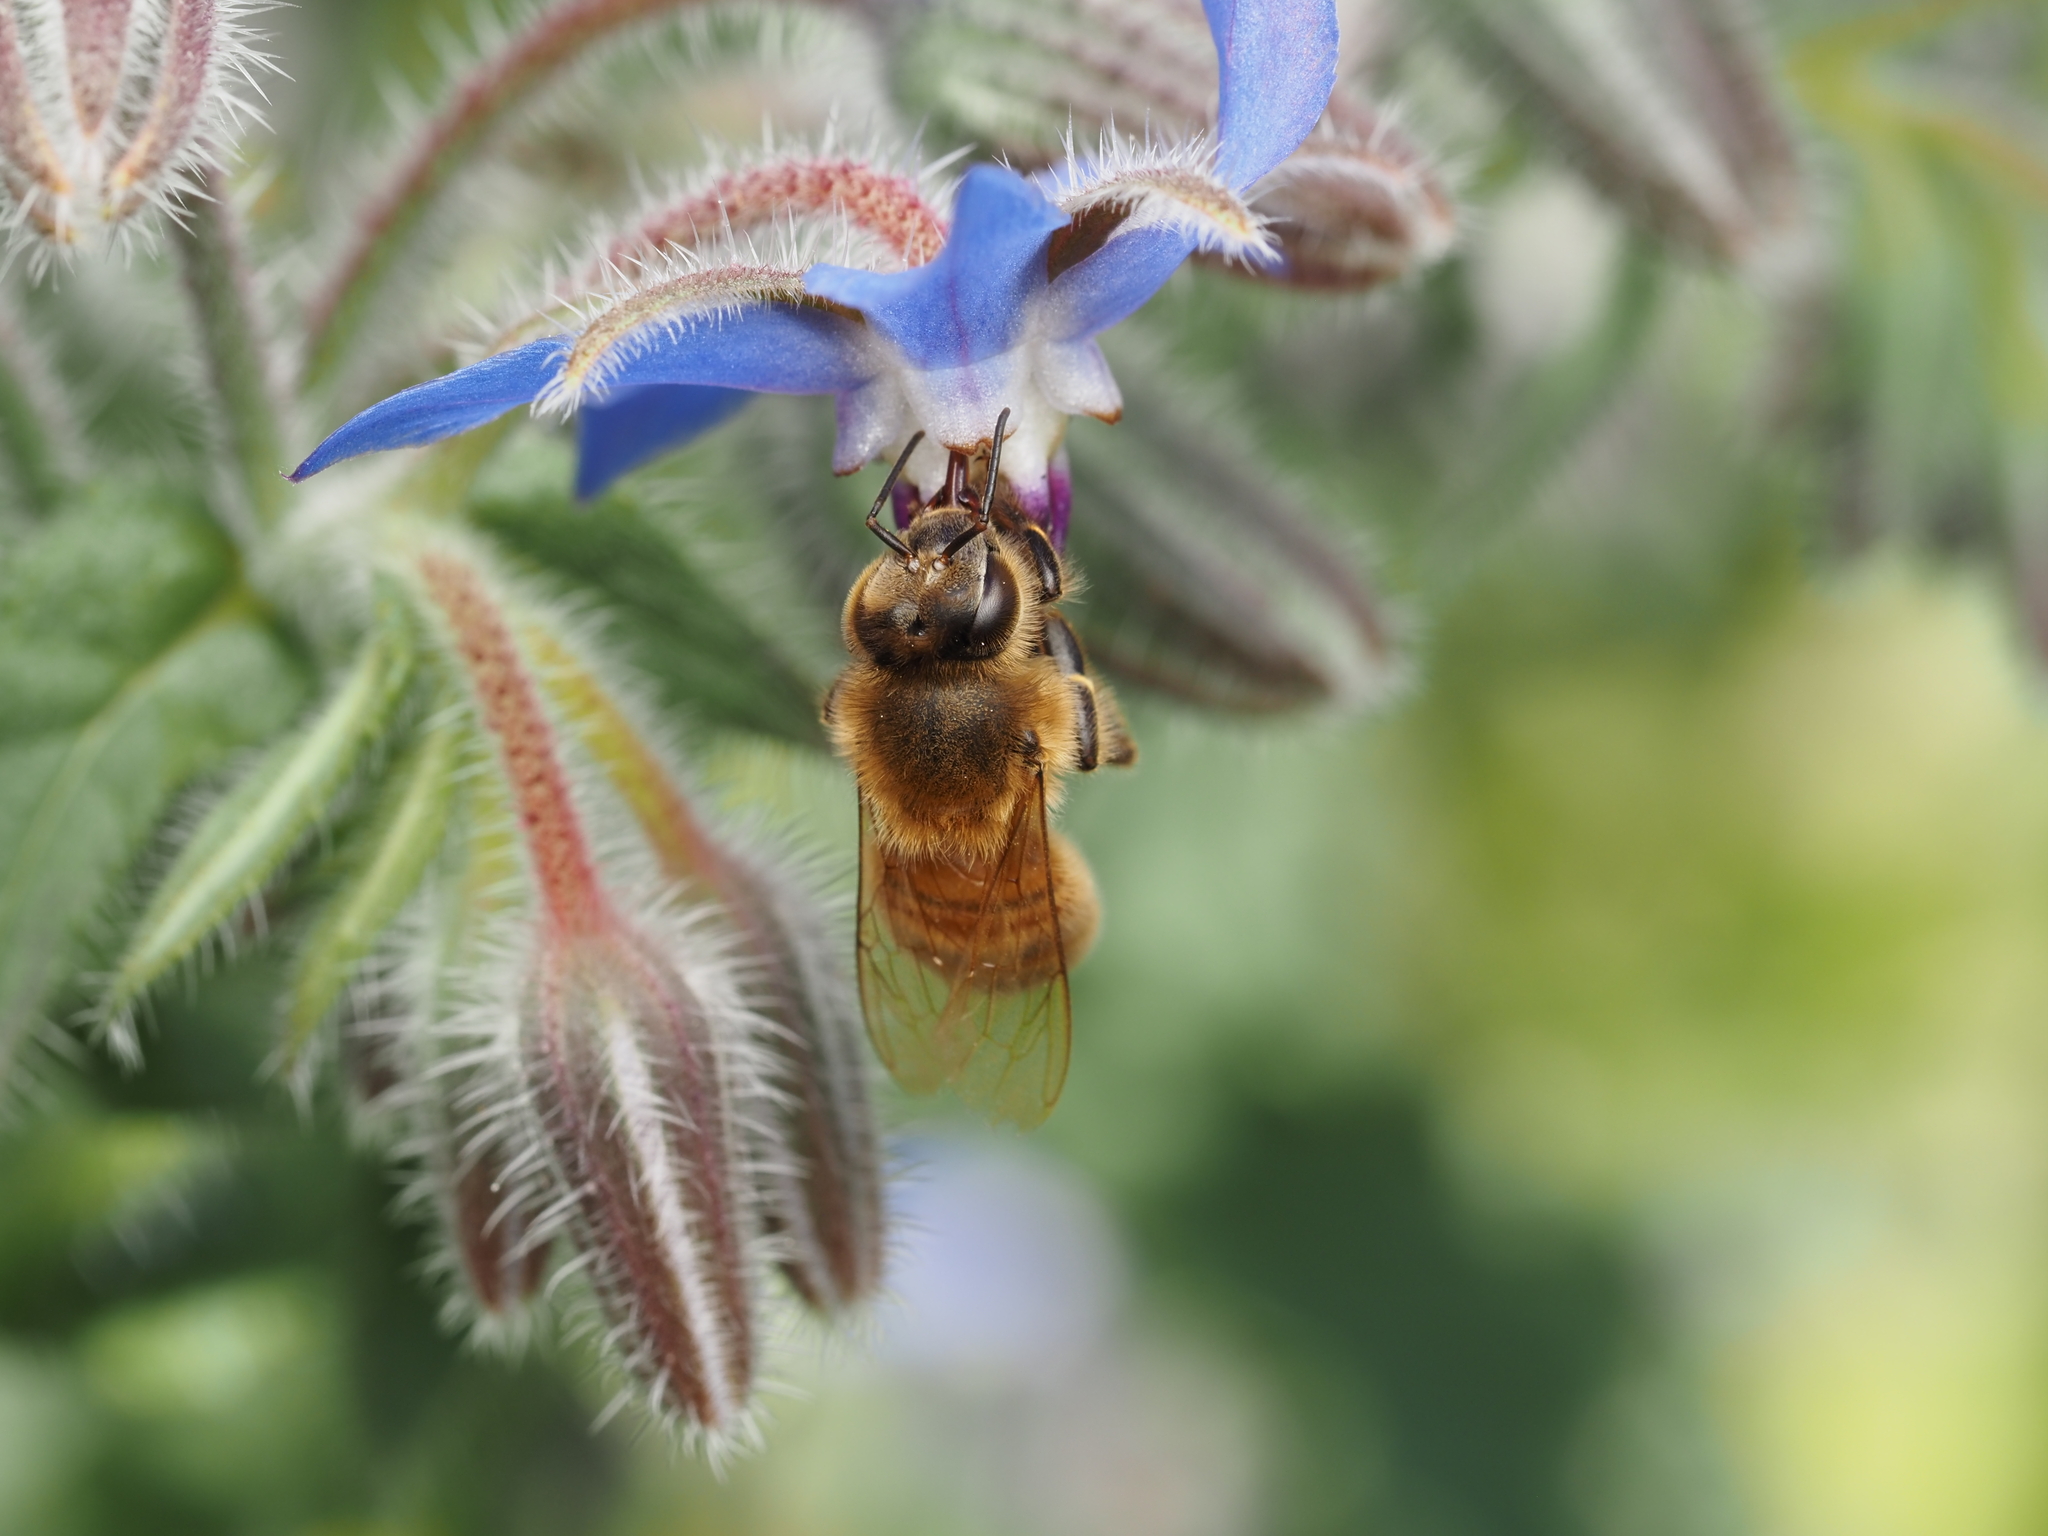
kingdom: Animalia
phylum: Arthropoda
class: Insecta
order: Hymenoptera
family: Apidae
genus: Apis
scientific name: Apis mellifera
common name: Honey bee
